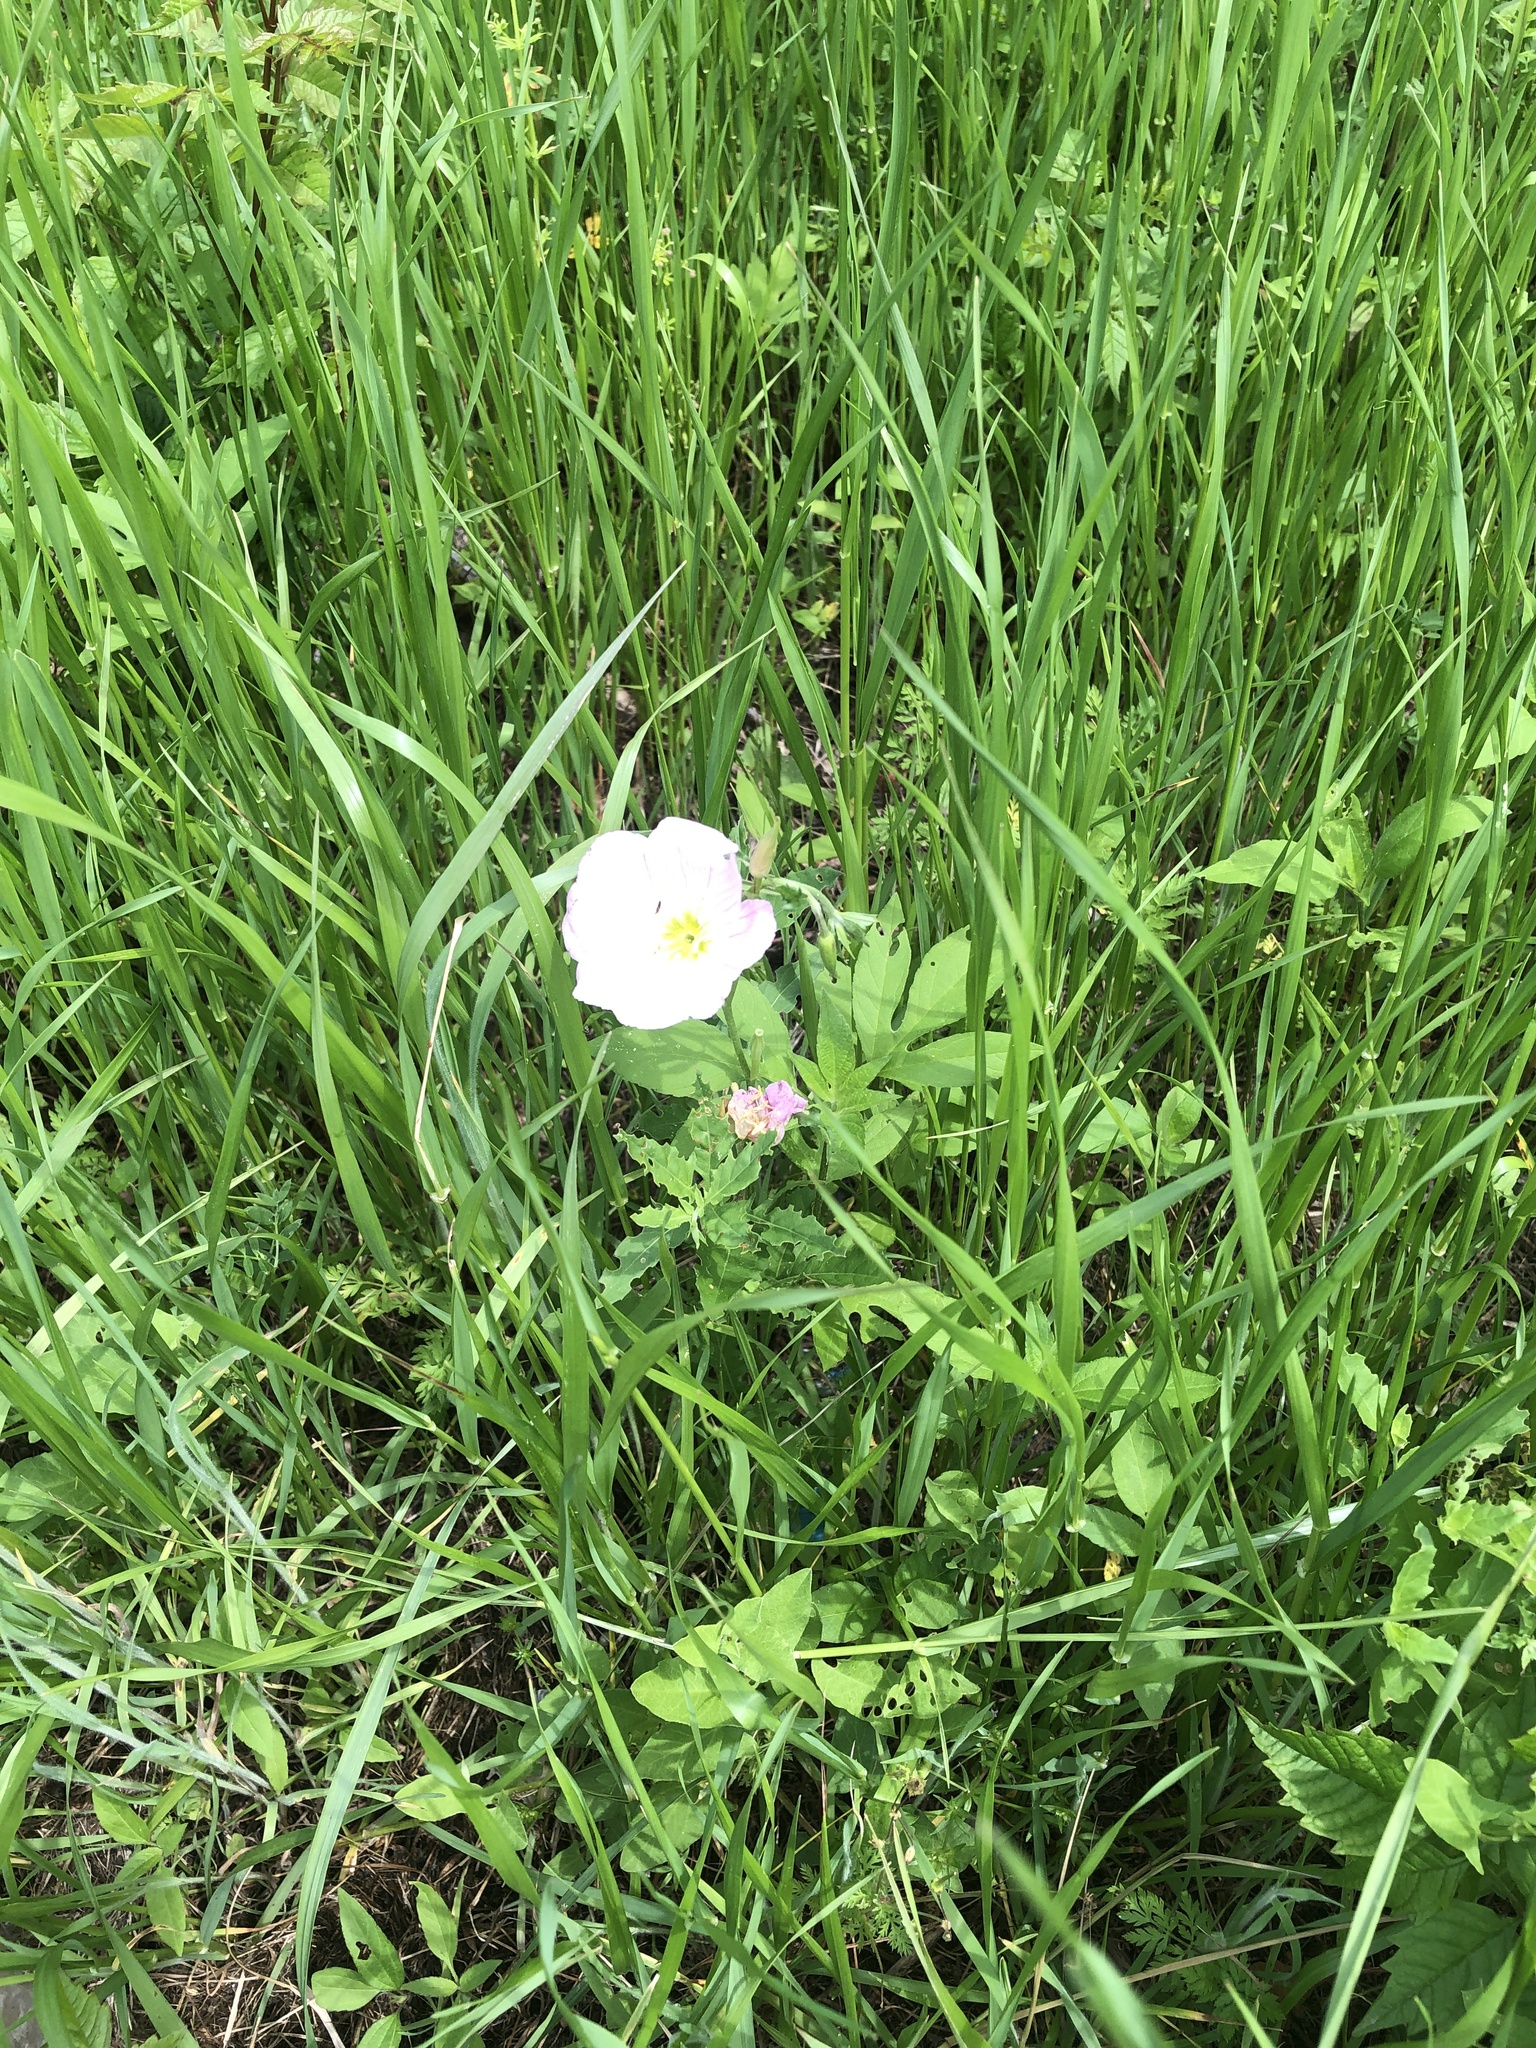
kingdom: Plantae
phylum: Tracheophyta
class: Magnoliopsida
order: Myrtales
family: Onagraceae
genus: Oenothera
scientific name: Oenothera speciosa
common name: White evening-primrose
